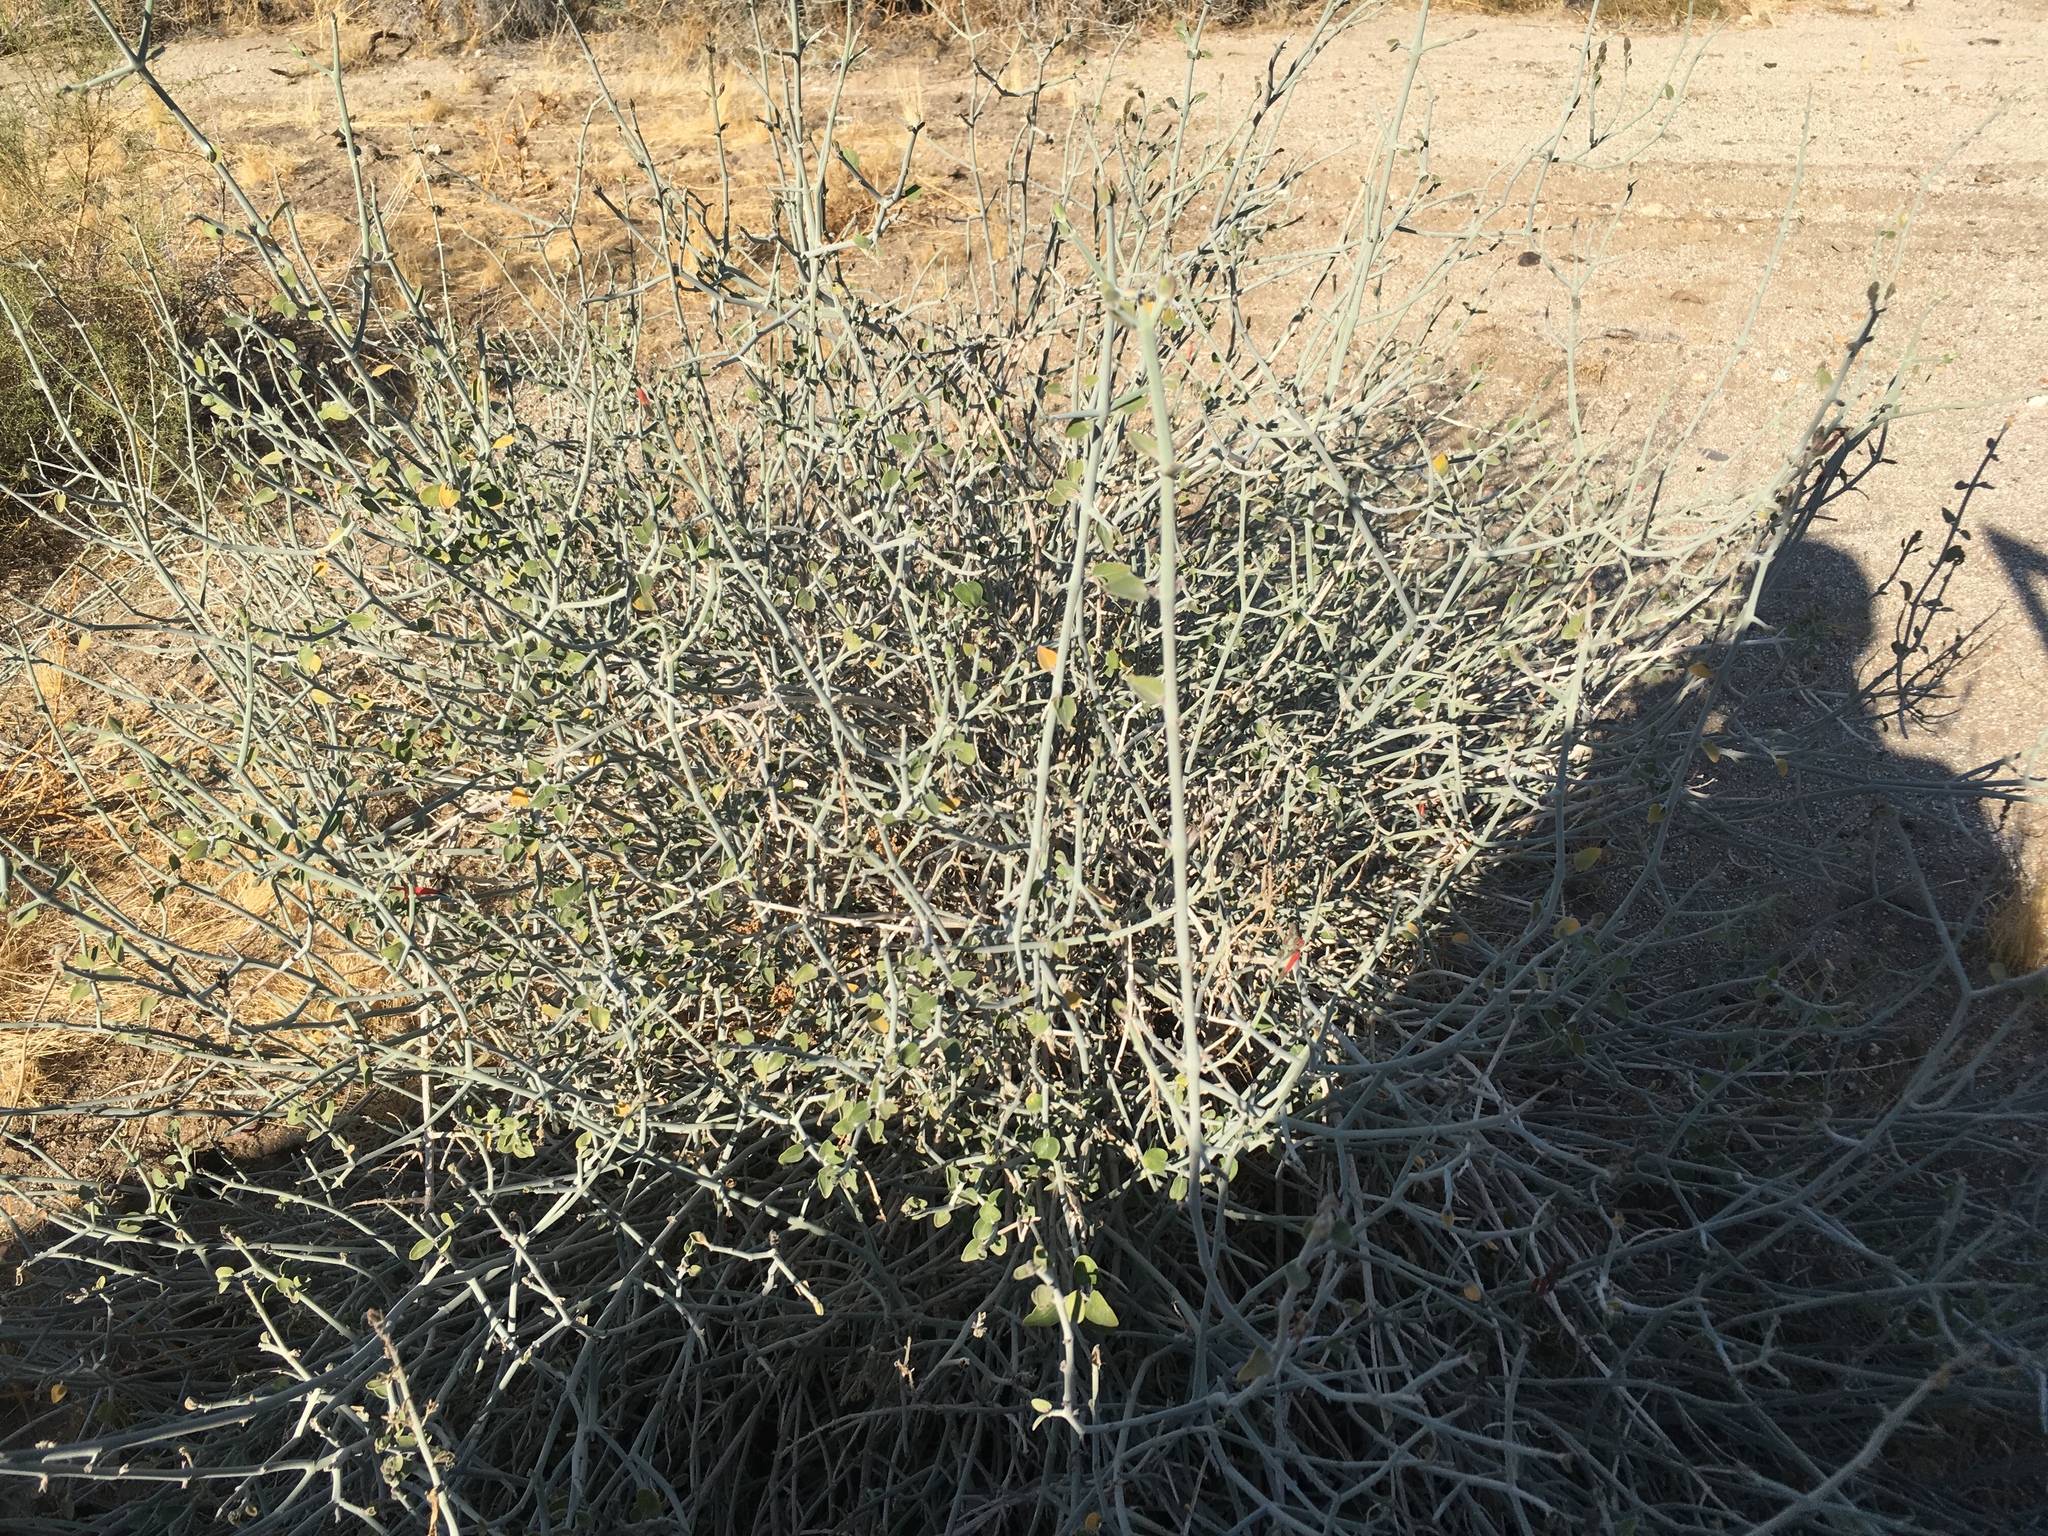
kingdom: Plantae
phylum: Tracheophyta
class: Magnoliopsida
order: Lamiales
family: Acanthaceae
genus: Justicia
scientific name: Justicia californica
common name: Chuparosa-honeysuckle
